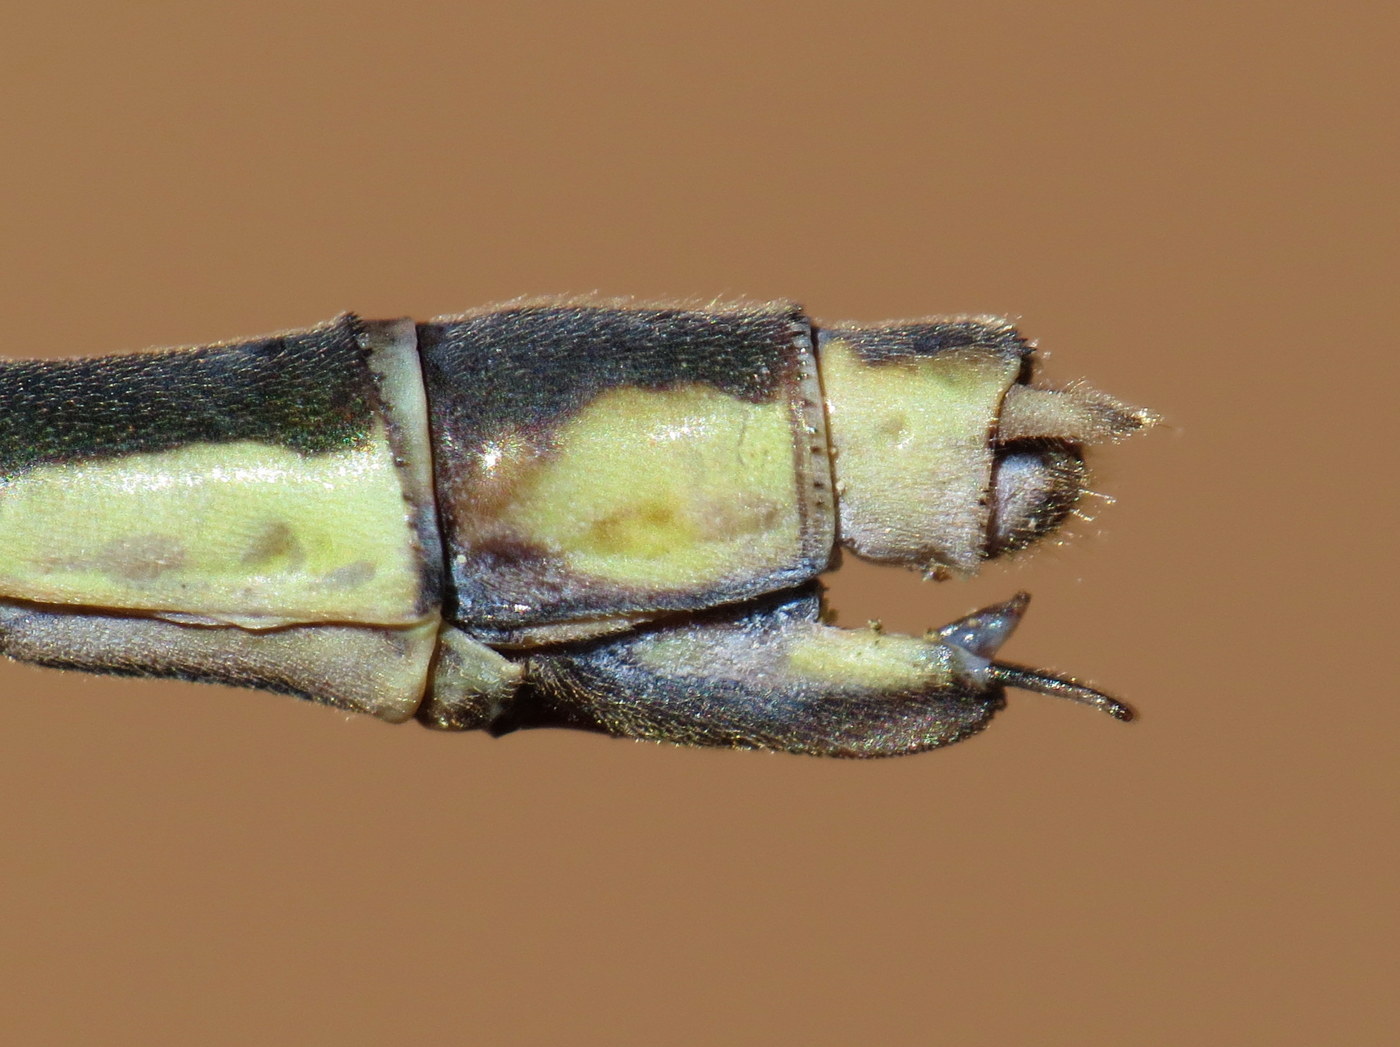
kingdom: Animalia
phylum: Arthropoda
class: Insecta
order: Odonata
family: Lestidae
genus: Lestes
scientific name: Lestes inaequalis
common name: Elegant spreadwing
